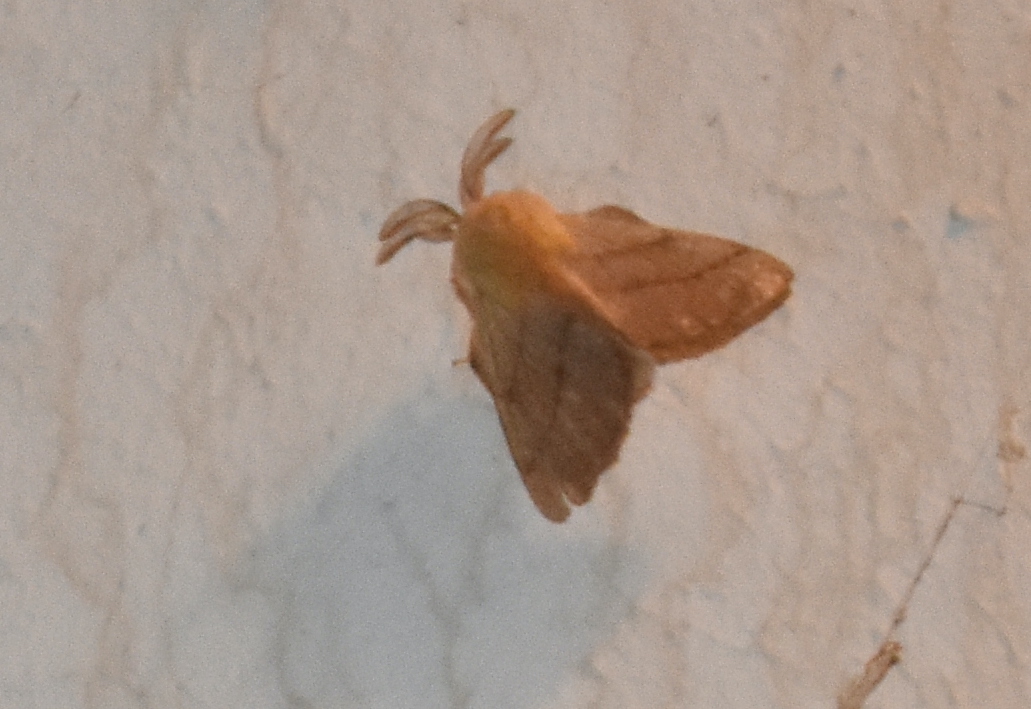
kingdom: Animalia
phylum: Arthropoda
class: Insecta
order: Lepidoptera
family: Lasiocampidae
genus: Malacosoma
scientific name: Malacosoma disstria
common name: Forest tent caterpillar
